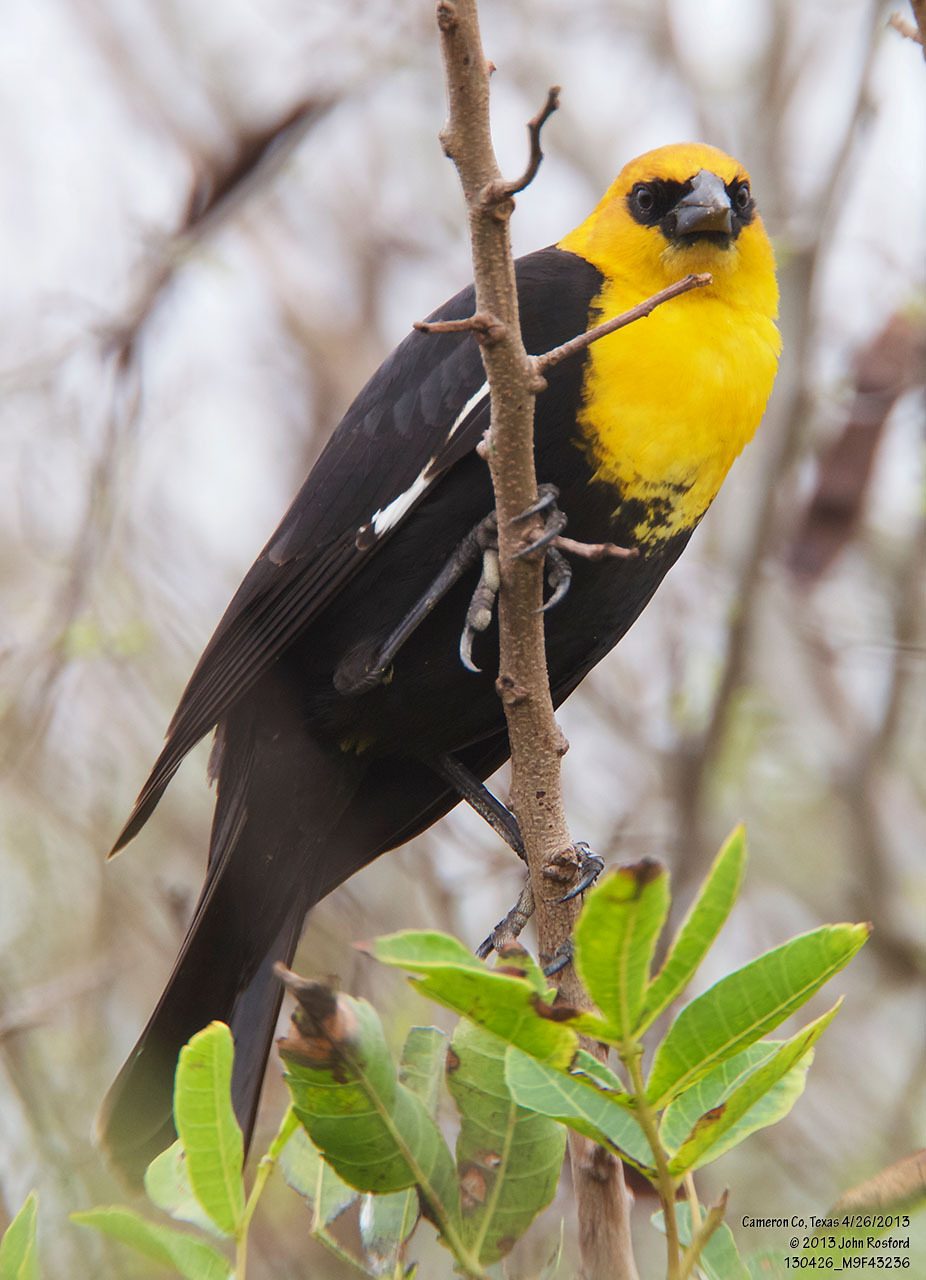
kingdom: Animalia
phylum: Chordata
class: Aves
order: Passeriformes
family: Icteridae
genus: Xanthocephalus
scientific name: Xanthocephalus xanthocephalus
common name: Yellow-headed blackbird
